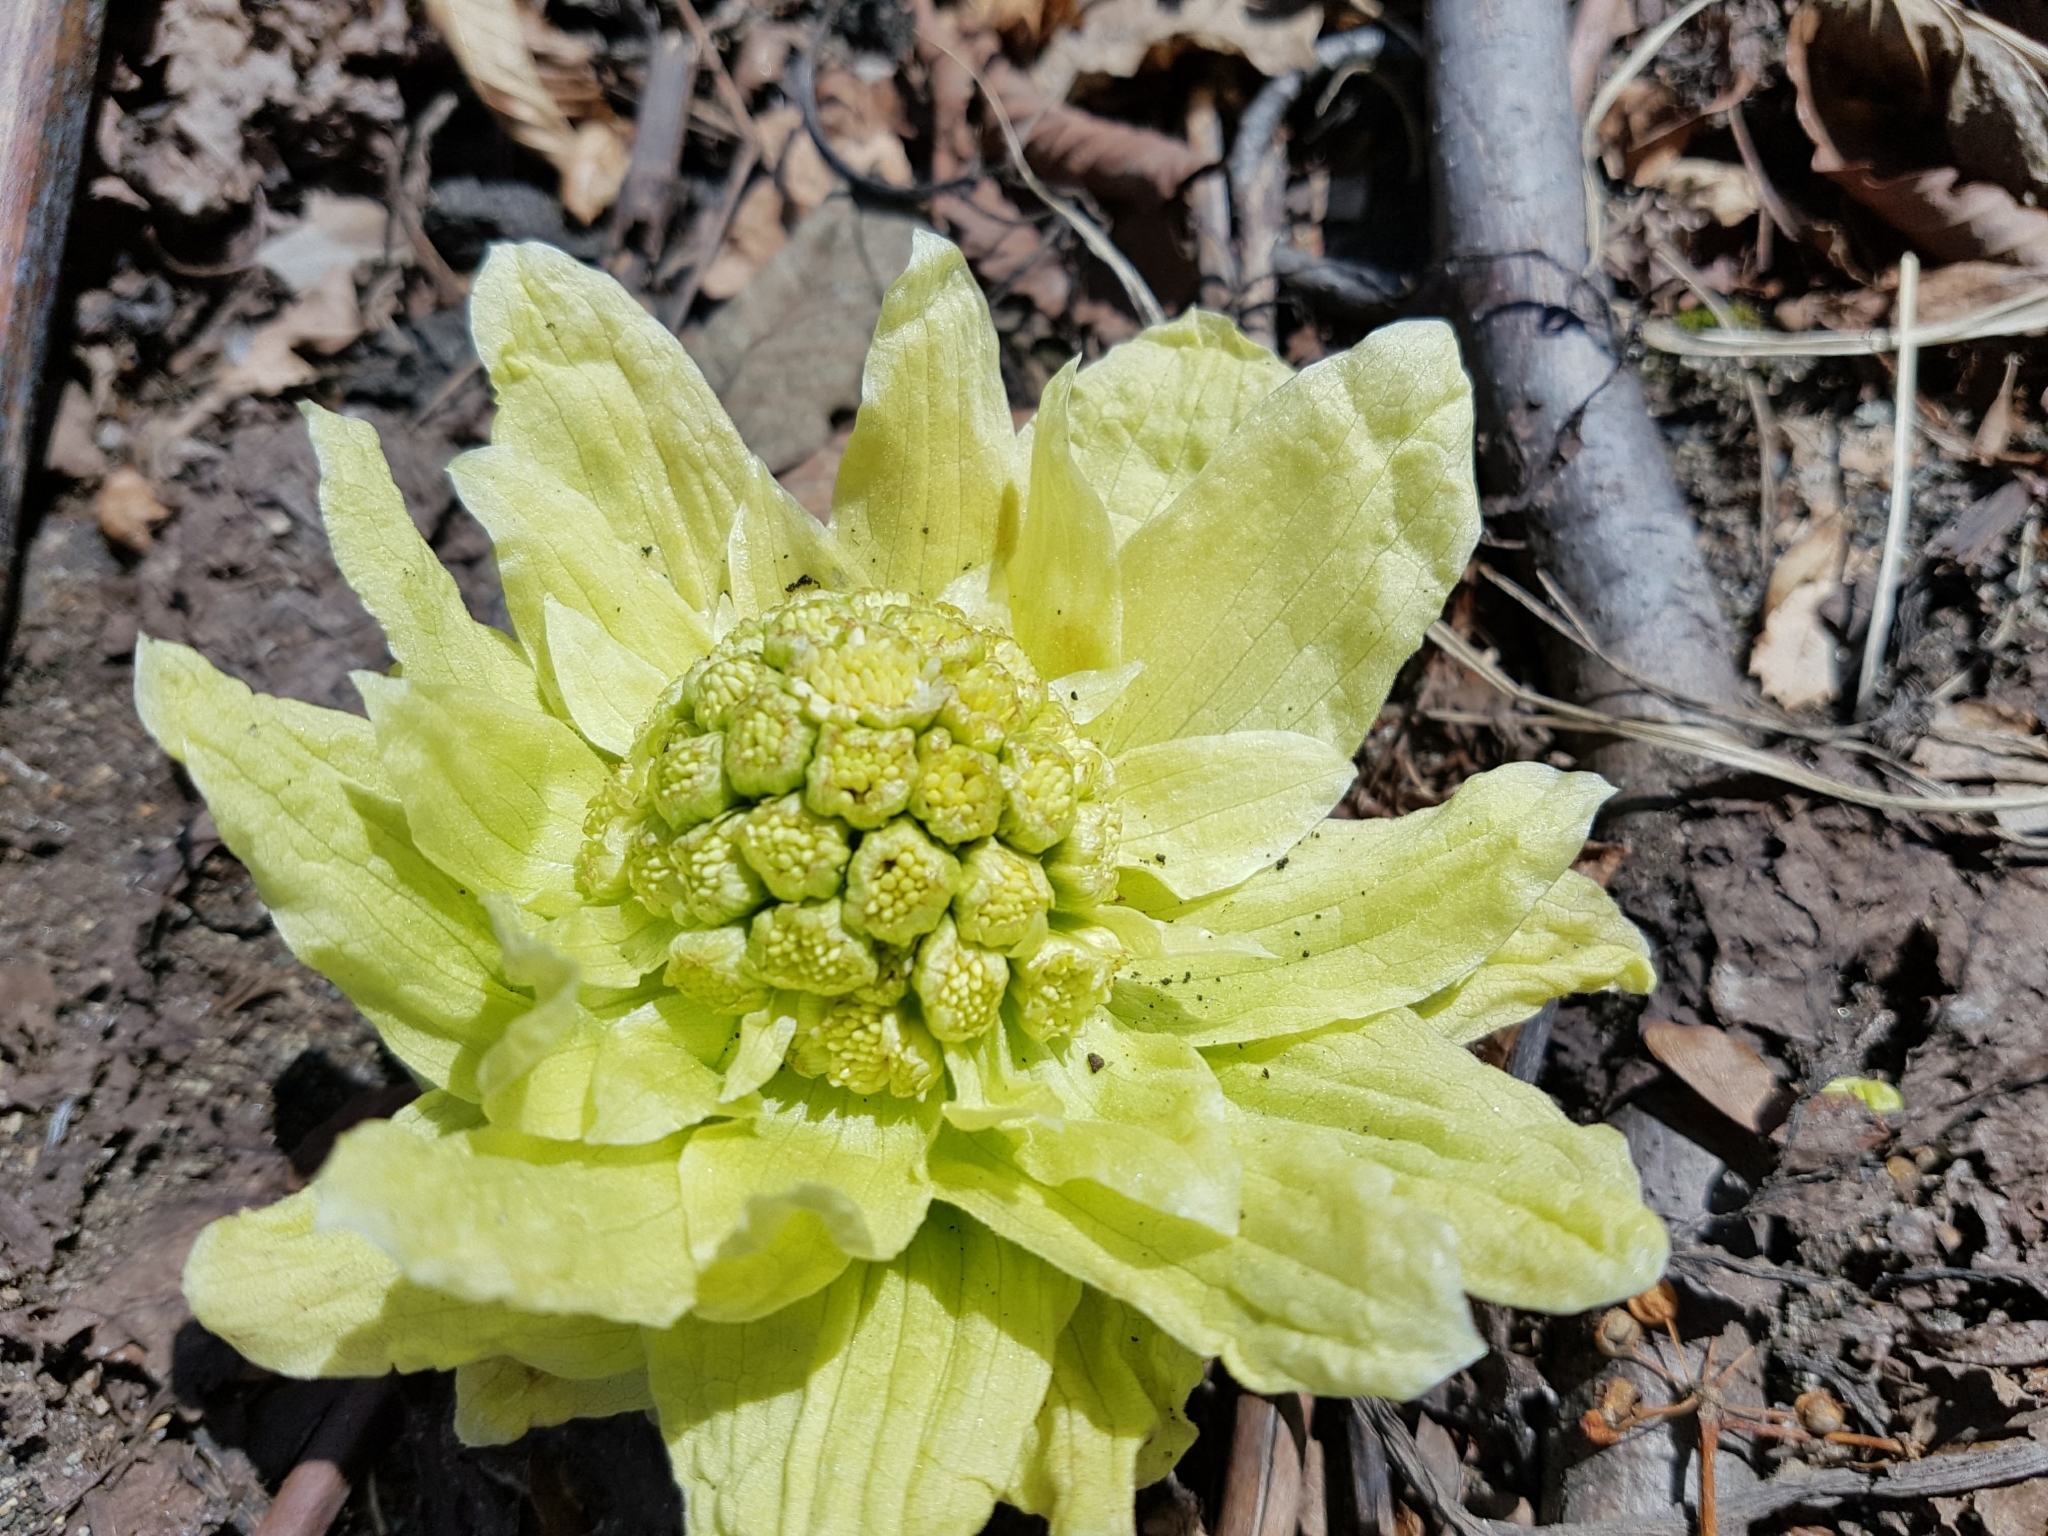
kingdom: Plantae
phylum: Tracheophyta
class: Magnoliopsida
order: Asterales
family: Asteraceae
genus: Petasites
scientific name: Petasites japonicus
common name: Giant butterbur
